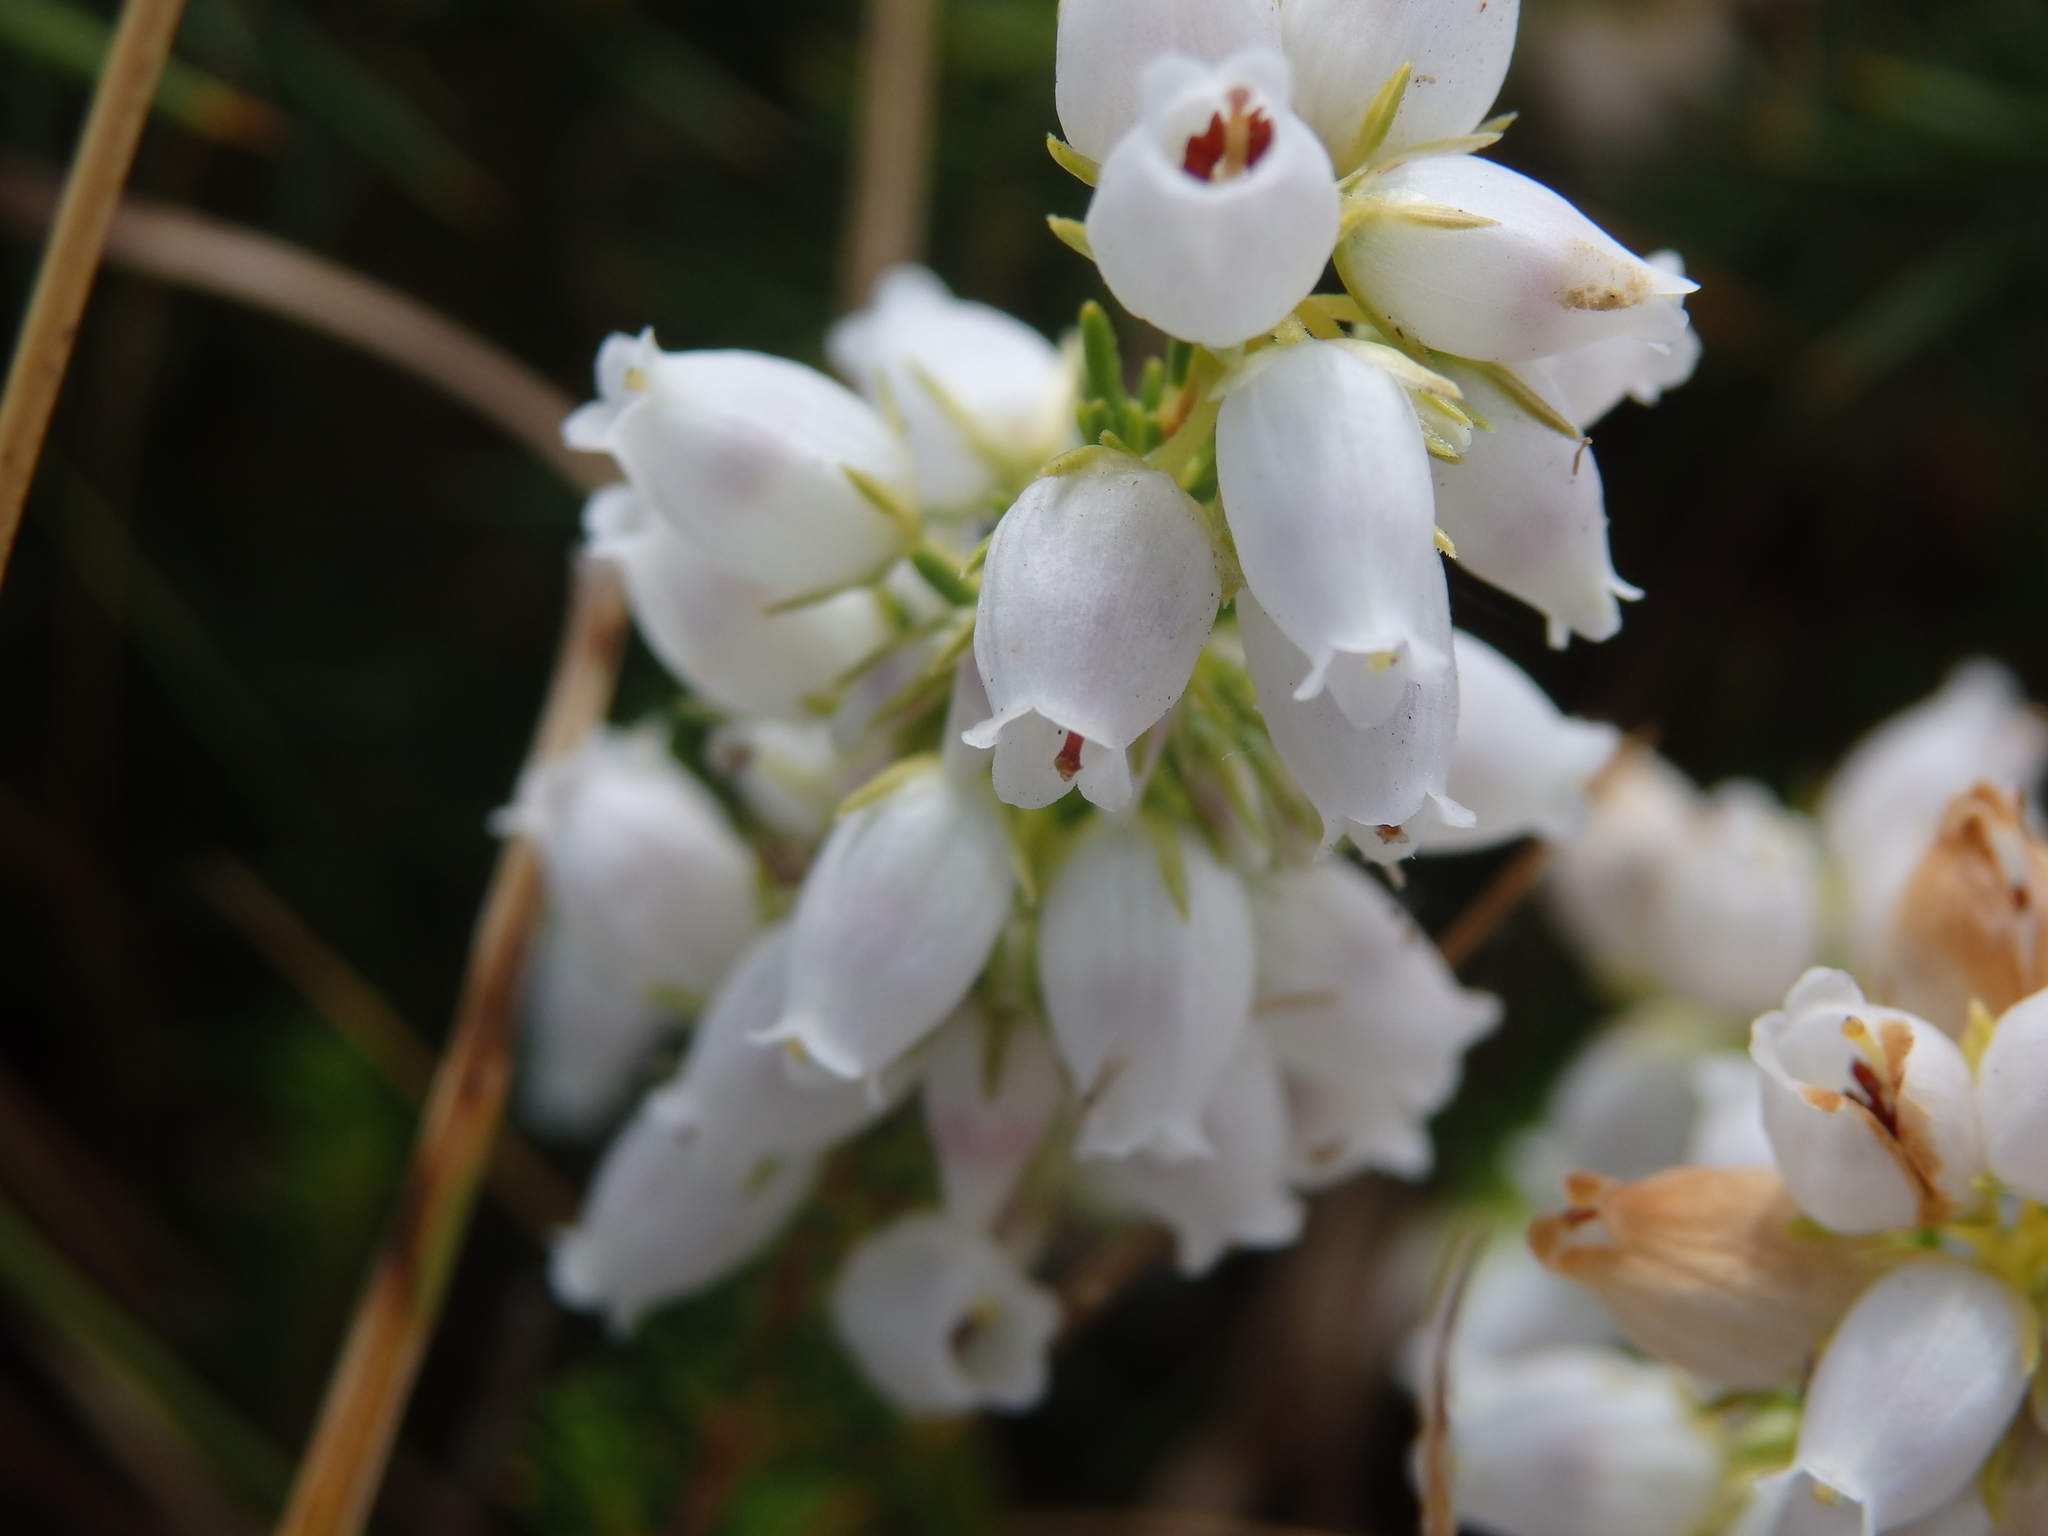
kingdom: Plantae
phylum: Tracheophyta
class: Magnoliopsida
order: Ericales
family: Ericaceae
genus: Erica
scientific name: Erica cinerea
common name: Bell heather
